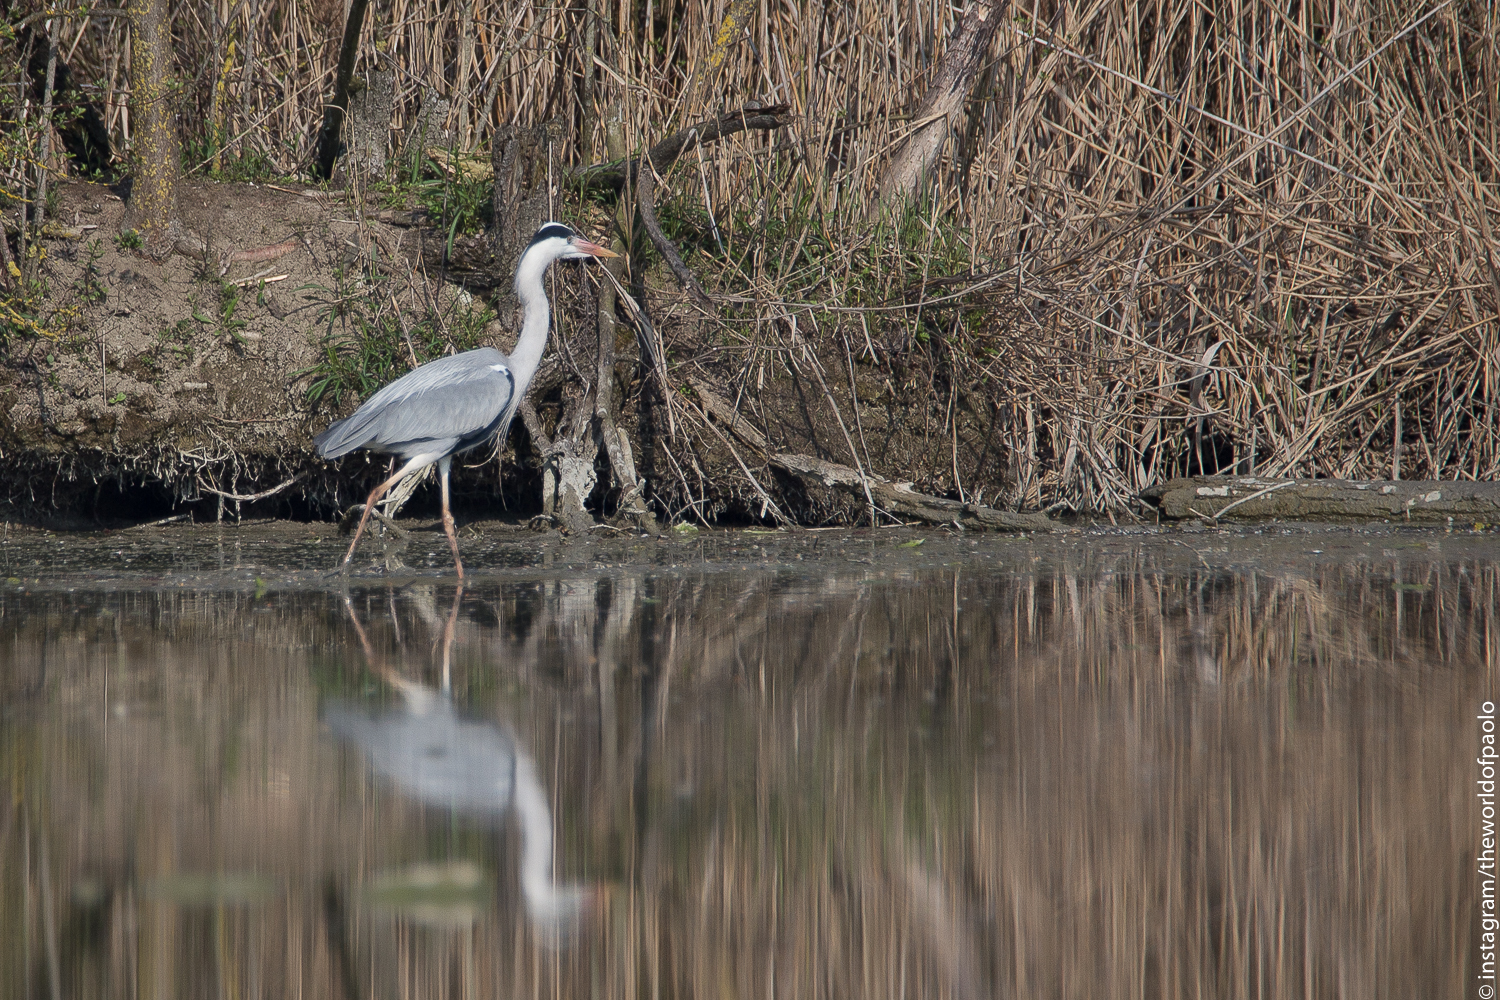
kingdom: Animalia
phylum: Chordata
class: Aves
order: Pelecaniformes
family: Ardeidae
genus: Ardea
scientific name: Ardea cinerea
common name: Grey heron
